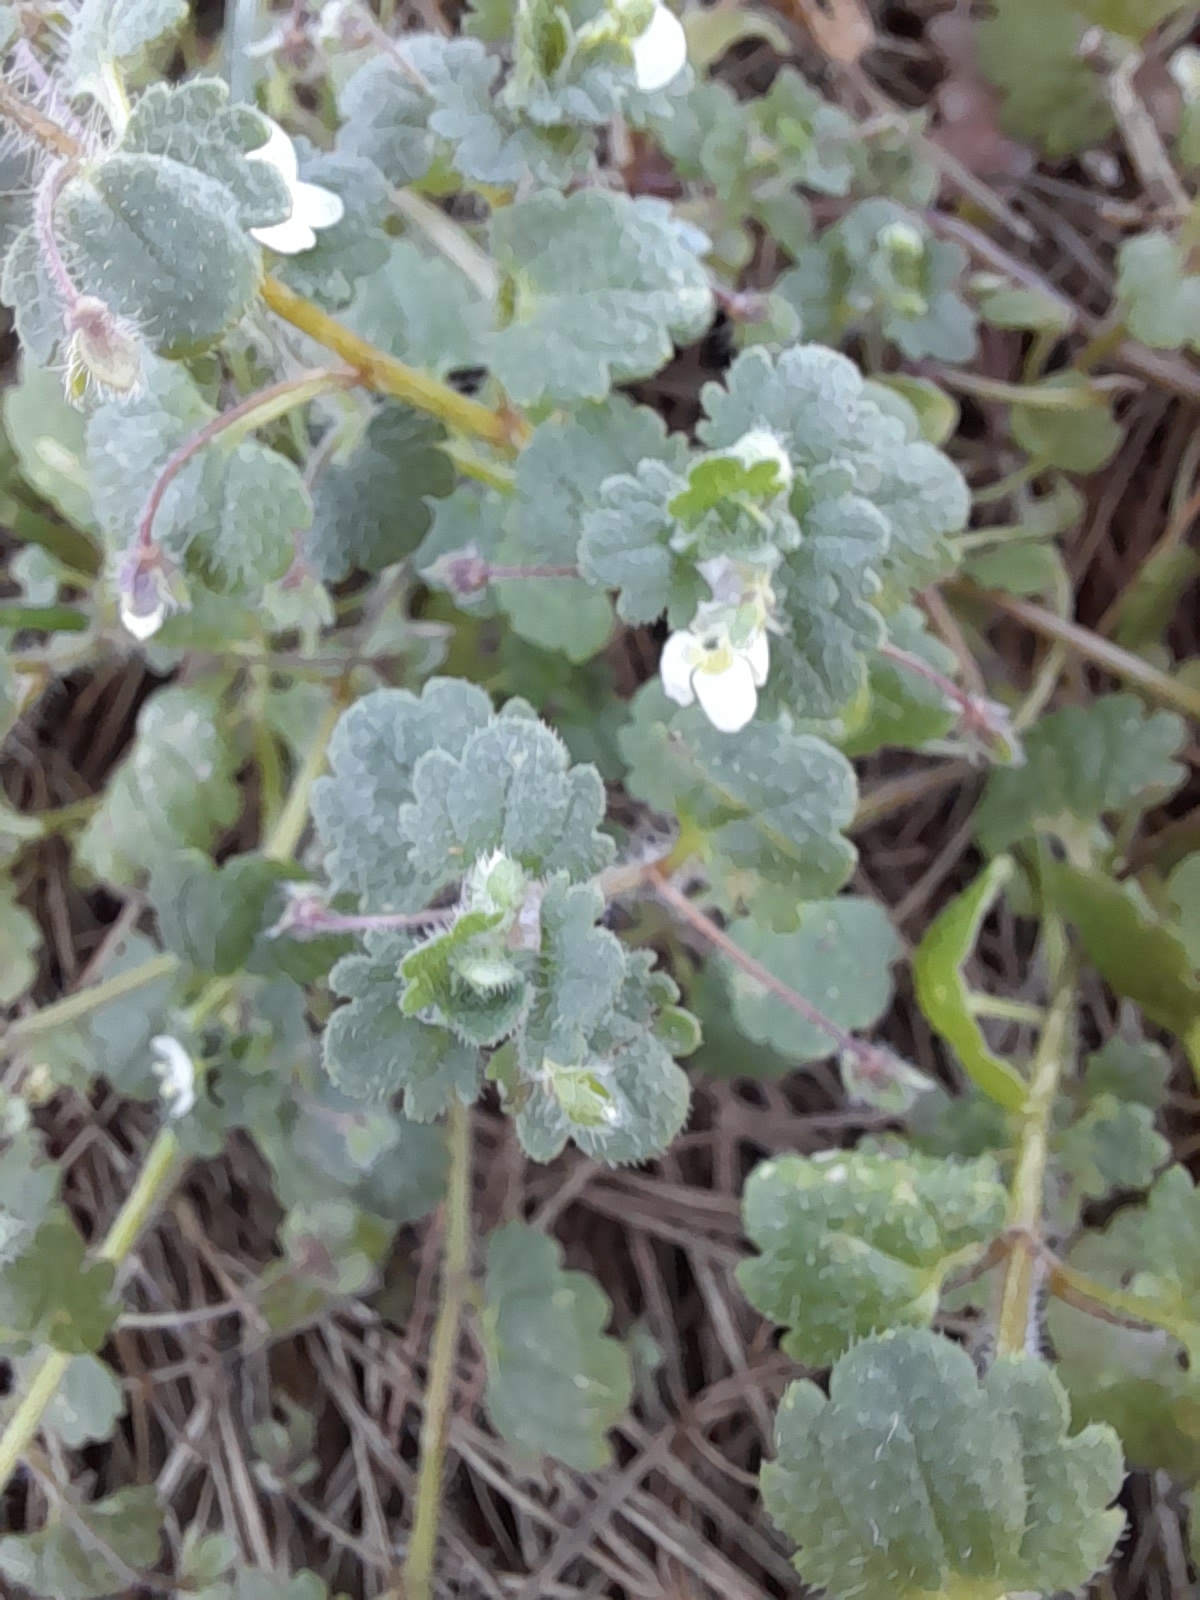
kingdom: Plantae
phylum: Tracheophyta
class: Magnoliopsida
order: Lamiales
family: Plantaginaceae
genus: Veronica
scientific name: Veronica cymbalaria
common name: Pale speedwell
